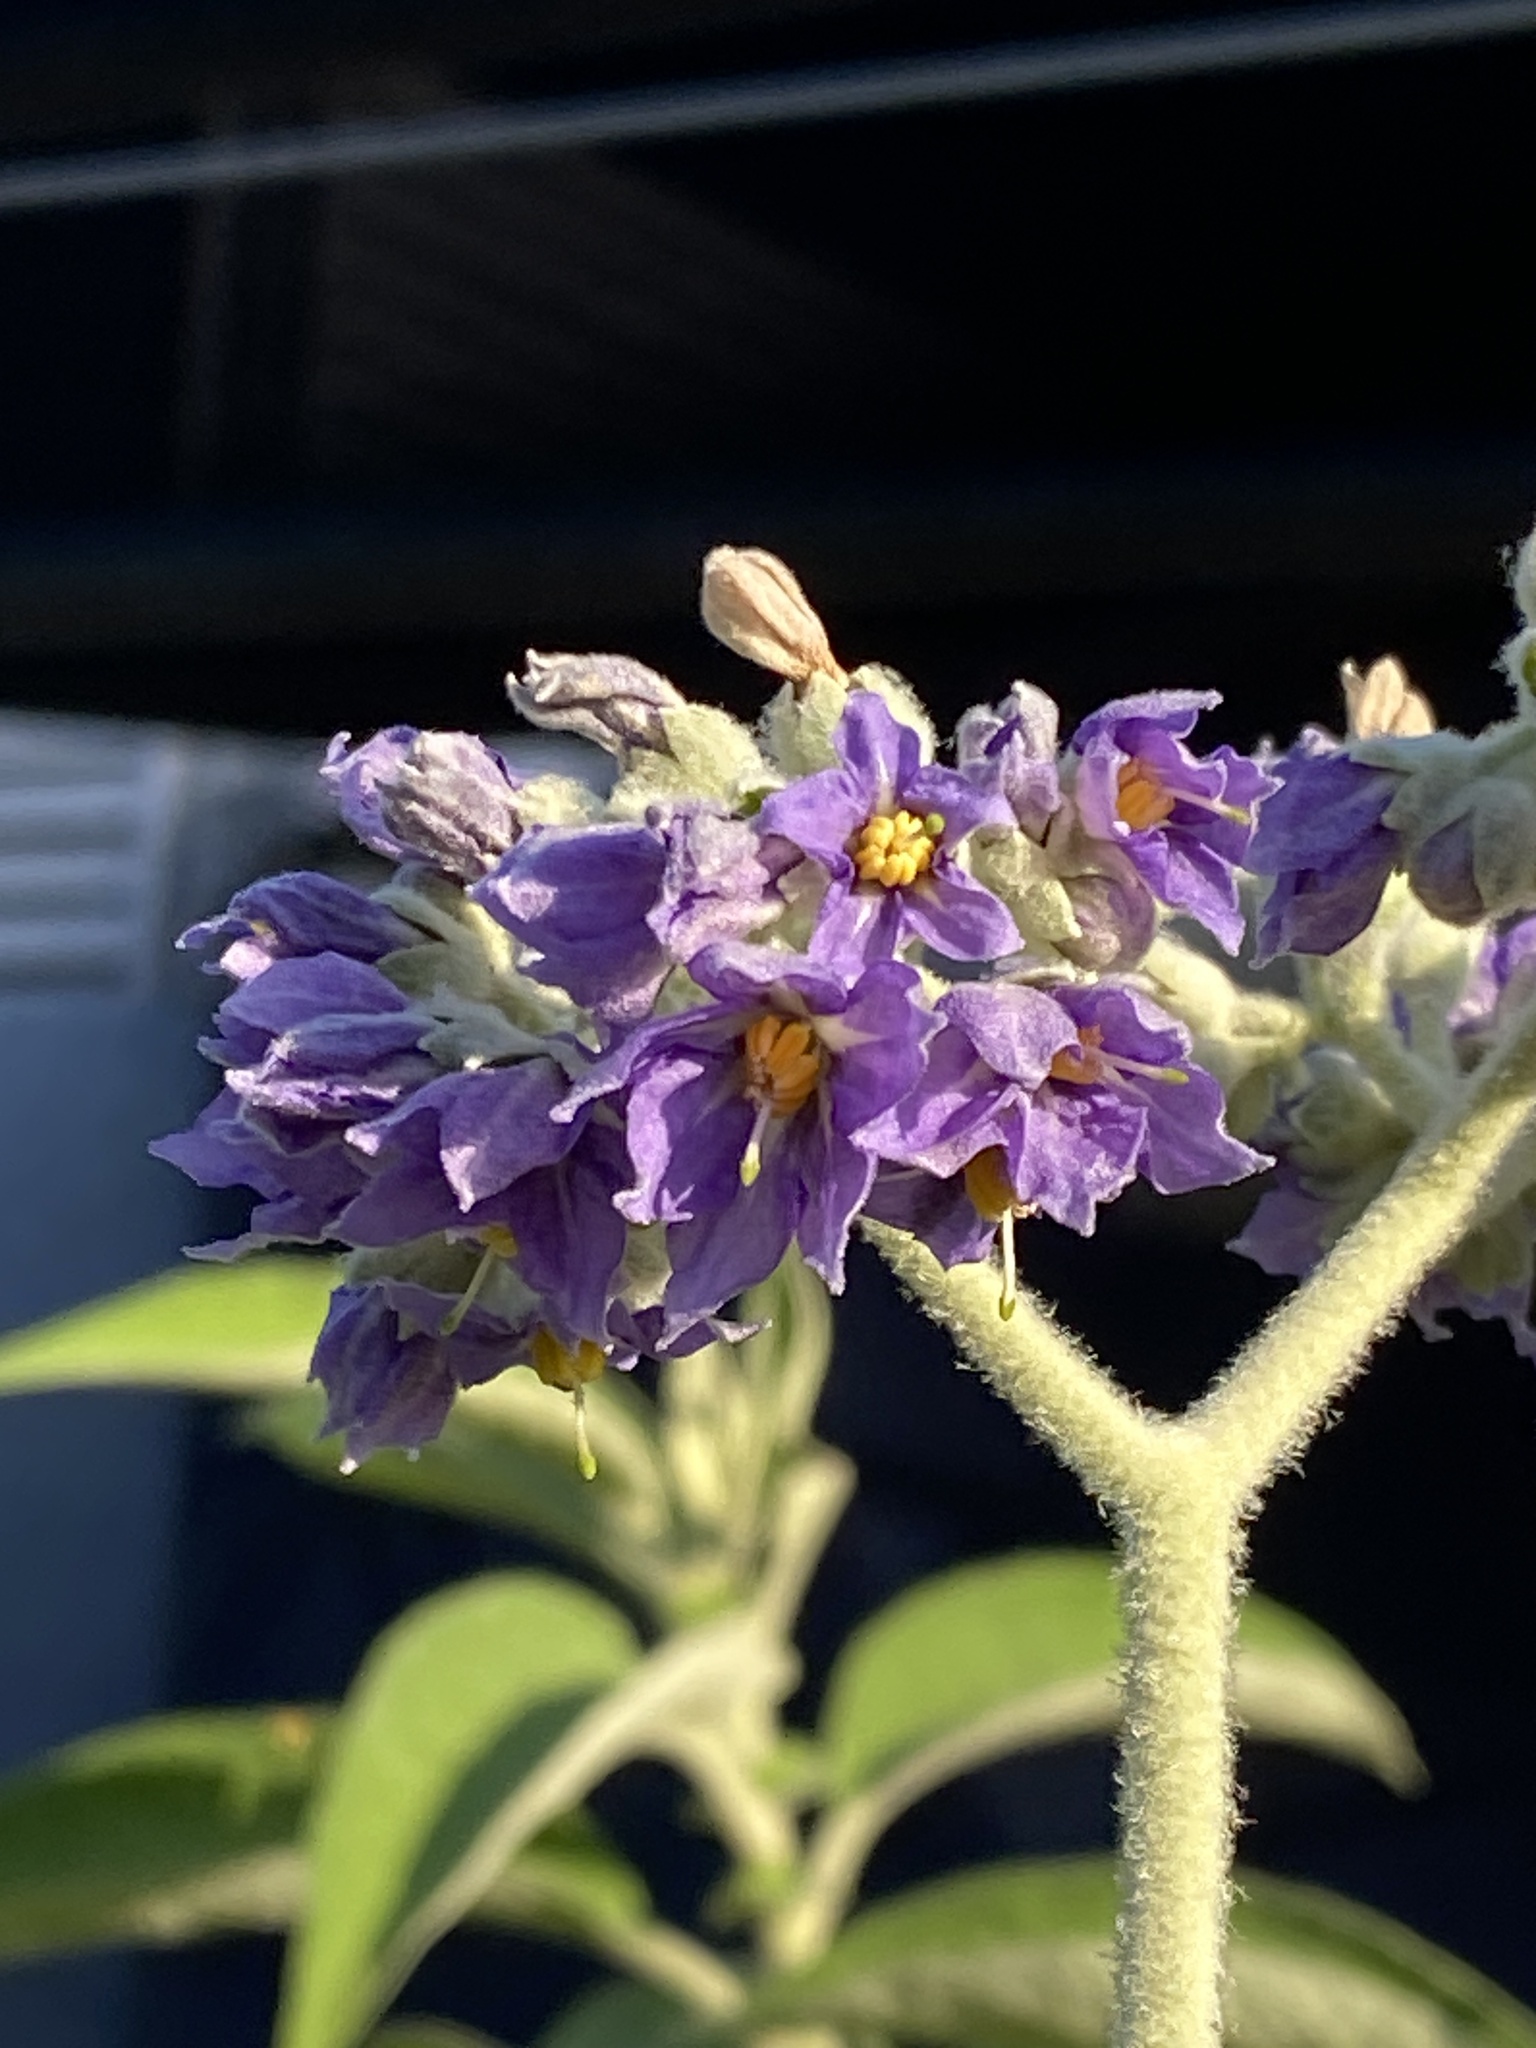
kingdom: Plantae
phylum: Tracheophyta
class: Magnoliopsida
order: Solanales
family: Solanaceae
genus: Solanum
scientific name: Solanum mauritianum
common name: Earleaf nightshade
